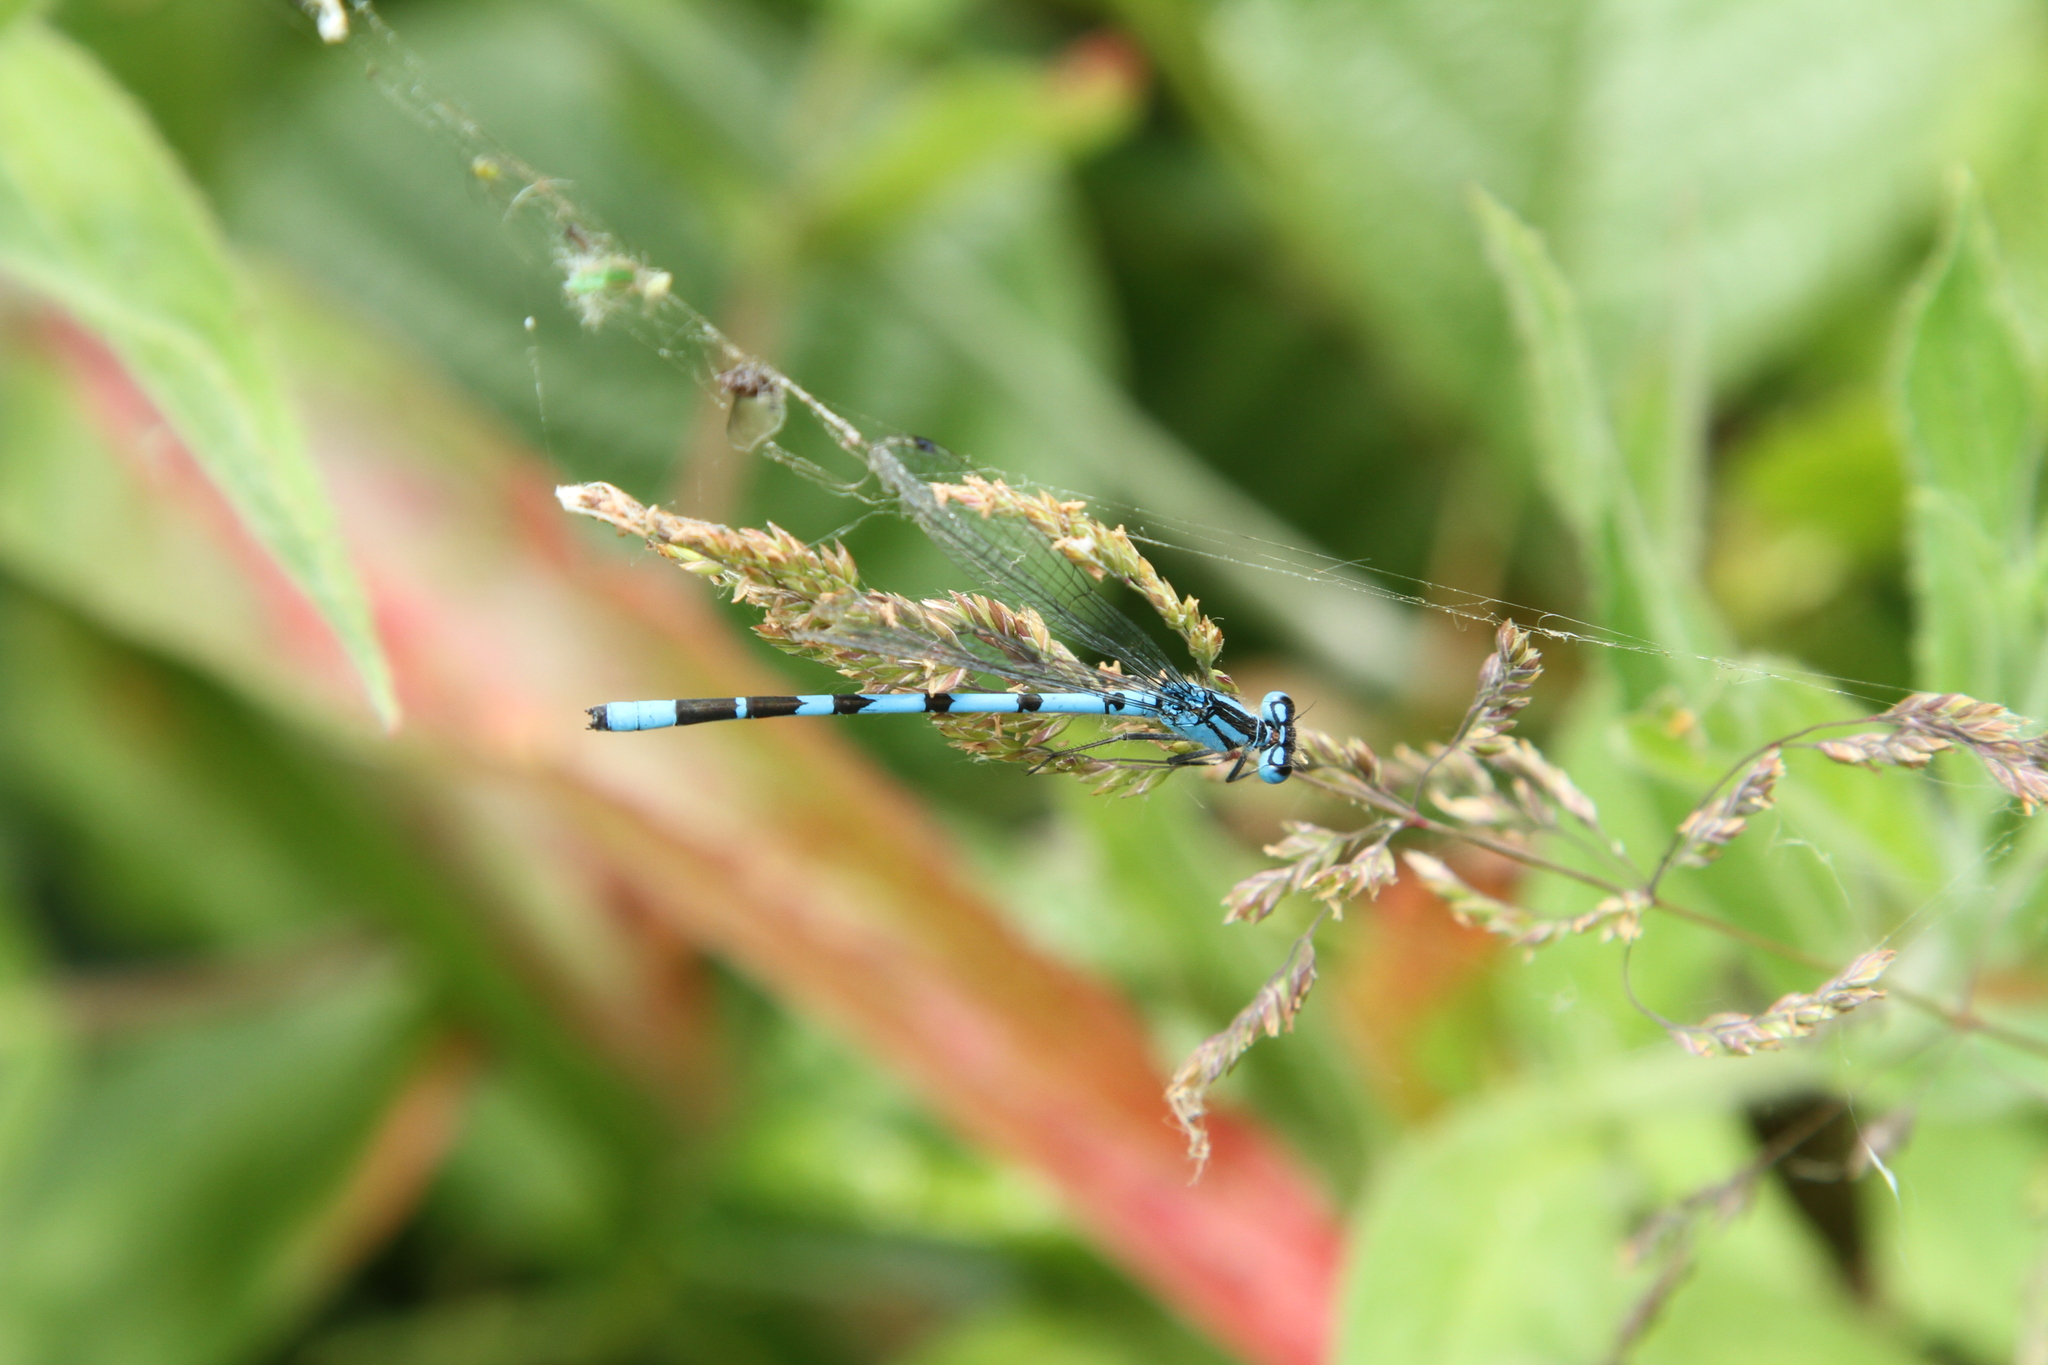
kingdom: Animalia
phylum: Arthropoda
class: Insecta
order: Odonata
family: Coenagrionidae
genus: Enallagma
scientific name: Enallagma cyathigerum
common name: Common blue damselfly
